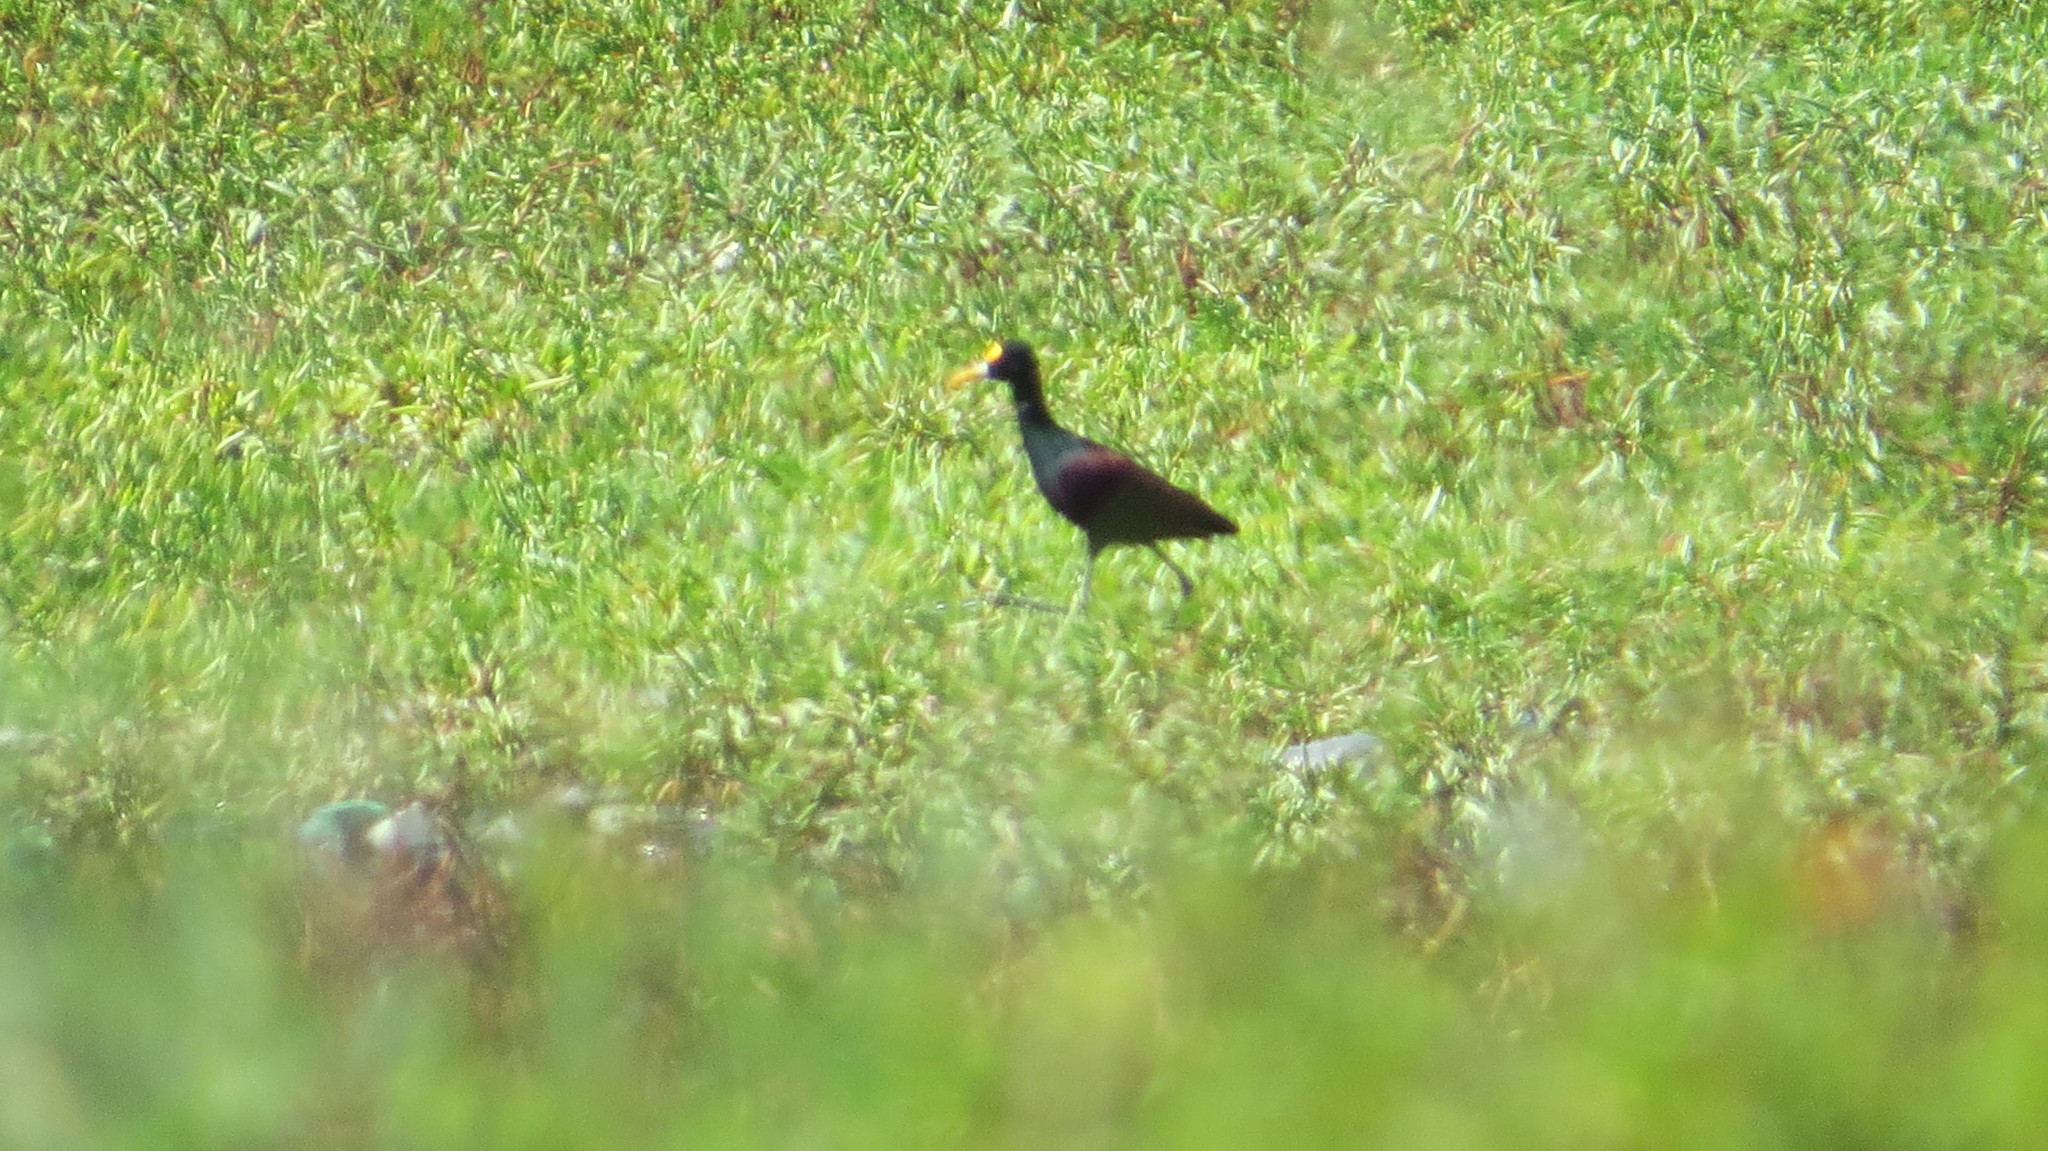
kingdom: Animalia
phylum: Chordata
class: Aves
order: Charadriiformes
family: Jacanidae
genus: Jacana
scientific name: Jacana spinosa
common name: Northern jacana
